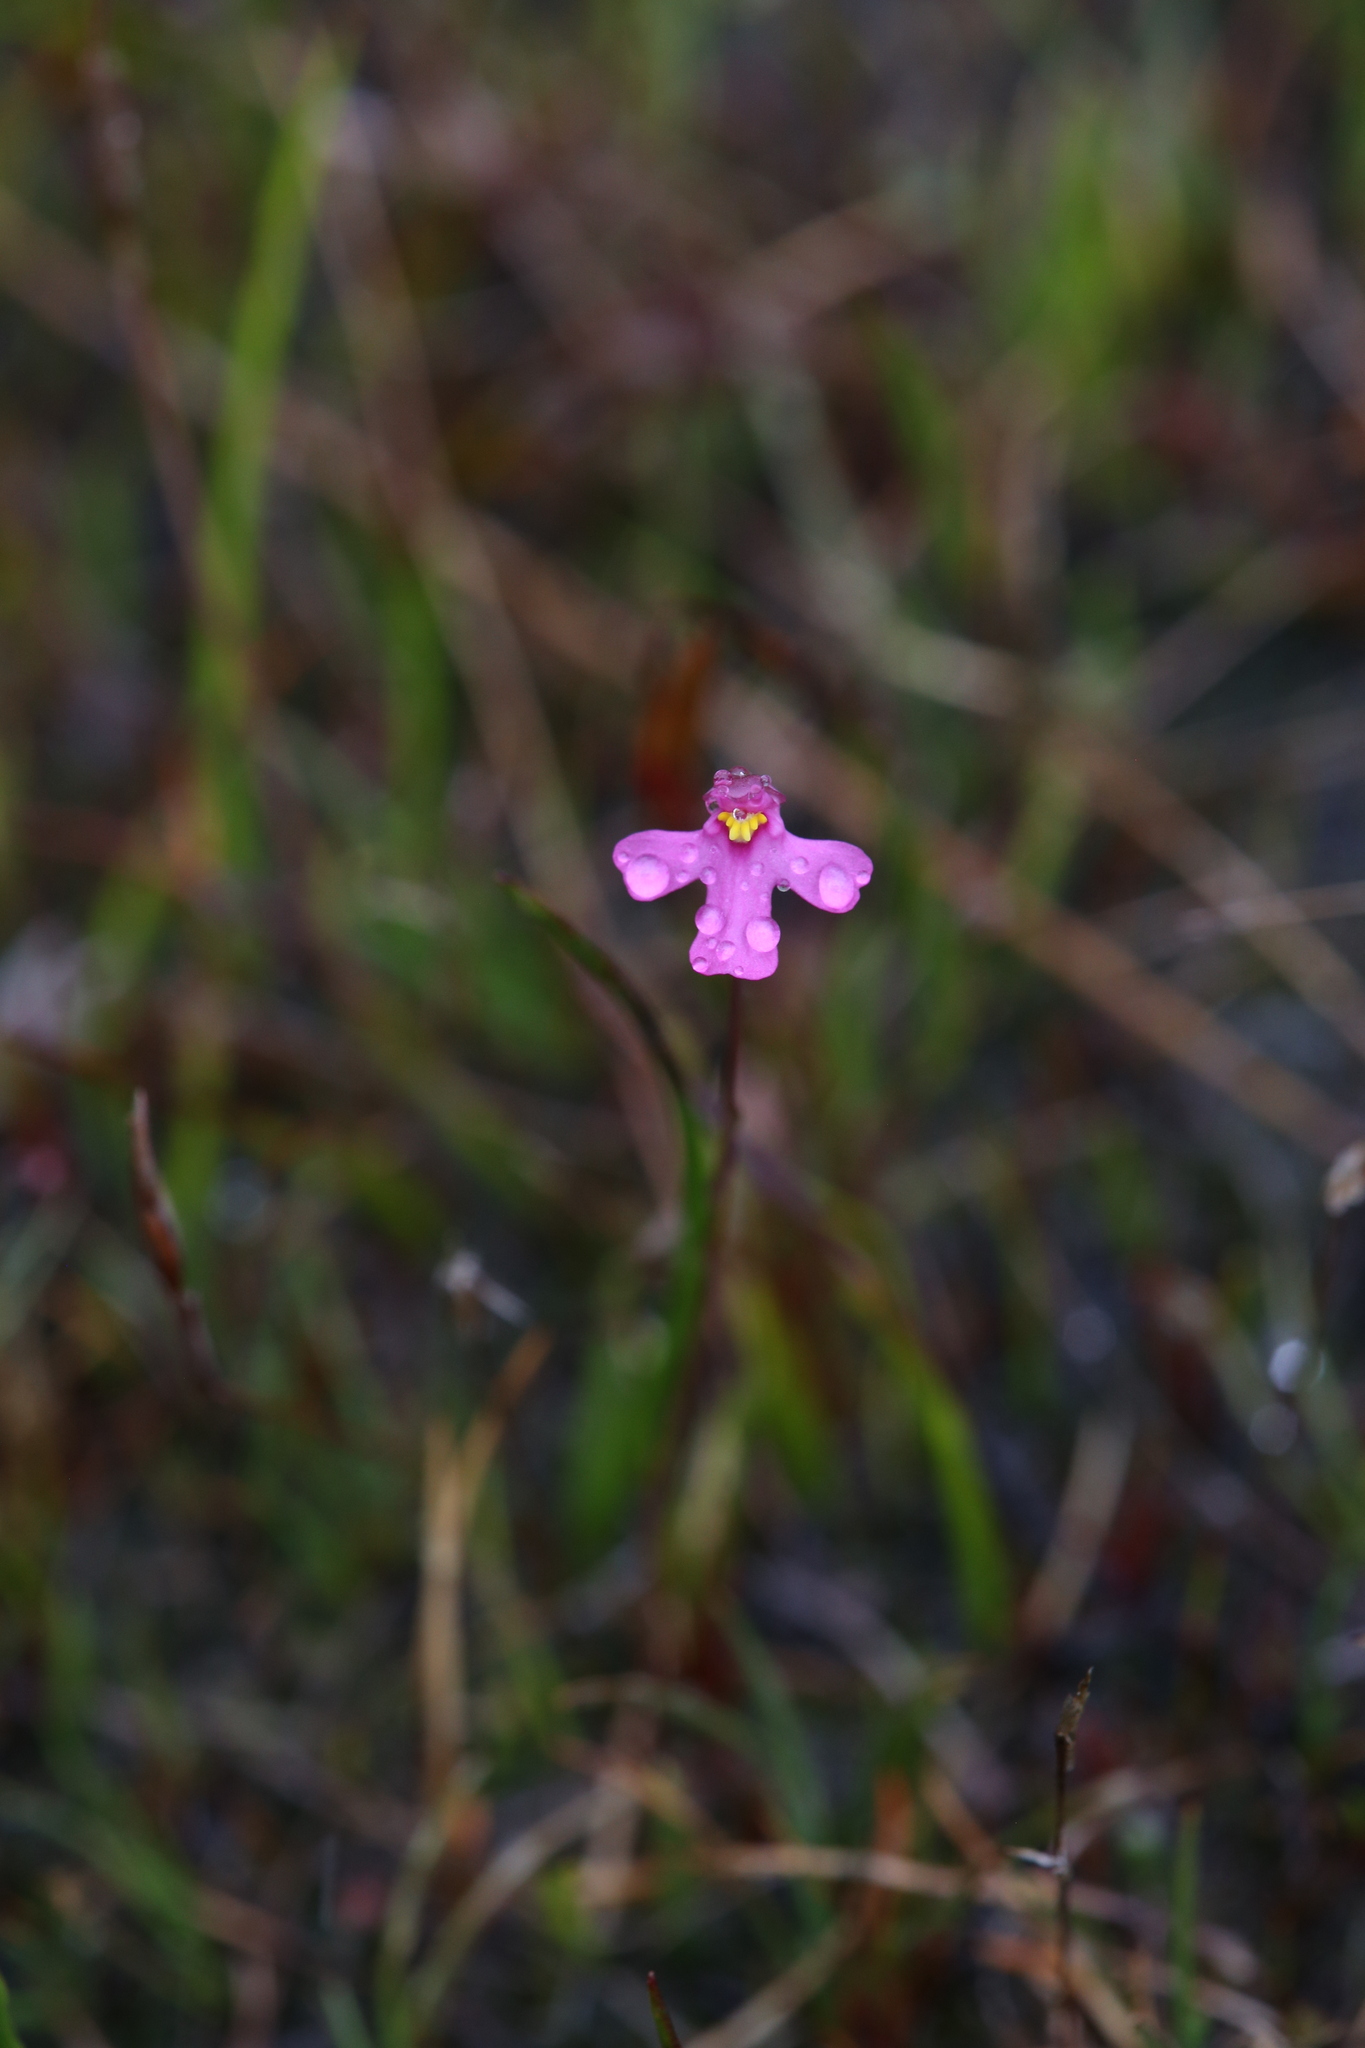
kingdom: Plantae
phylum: Tracheophyta
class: Magnoliopsida
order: Lamiales
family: Lentibulariaceae
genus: Utricularia
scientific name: Utricularia multifida
